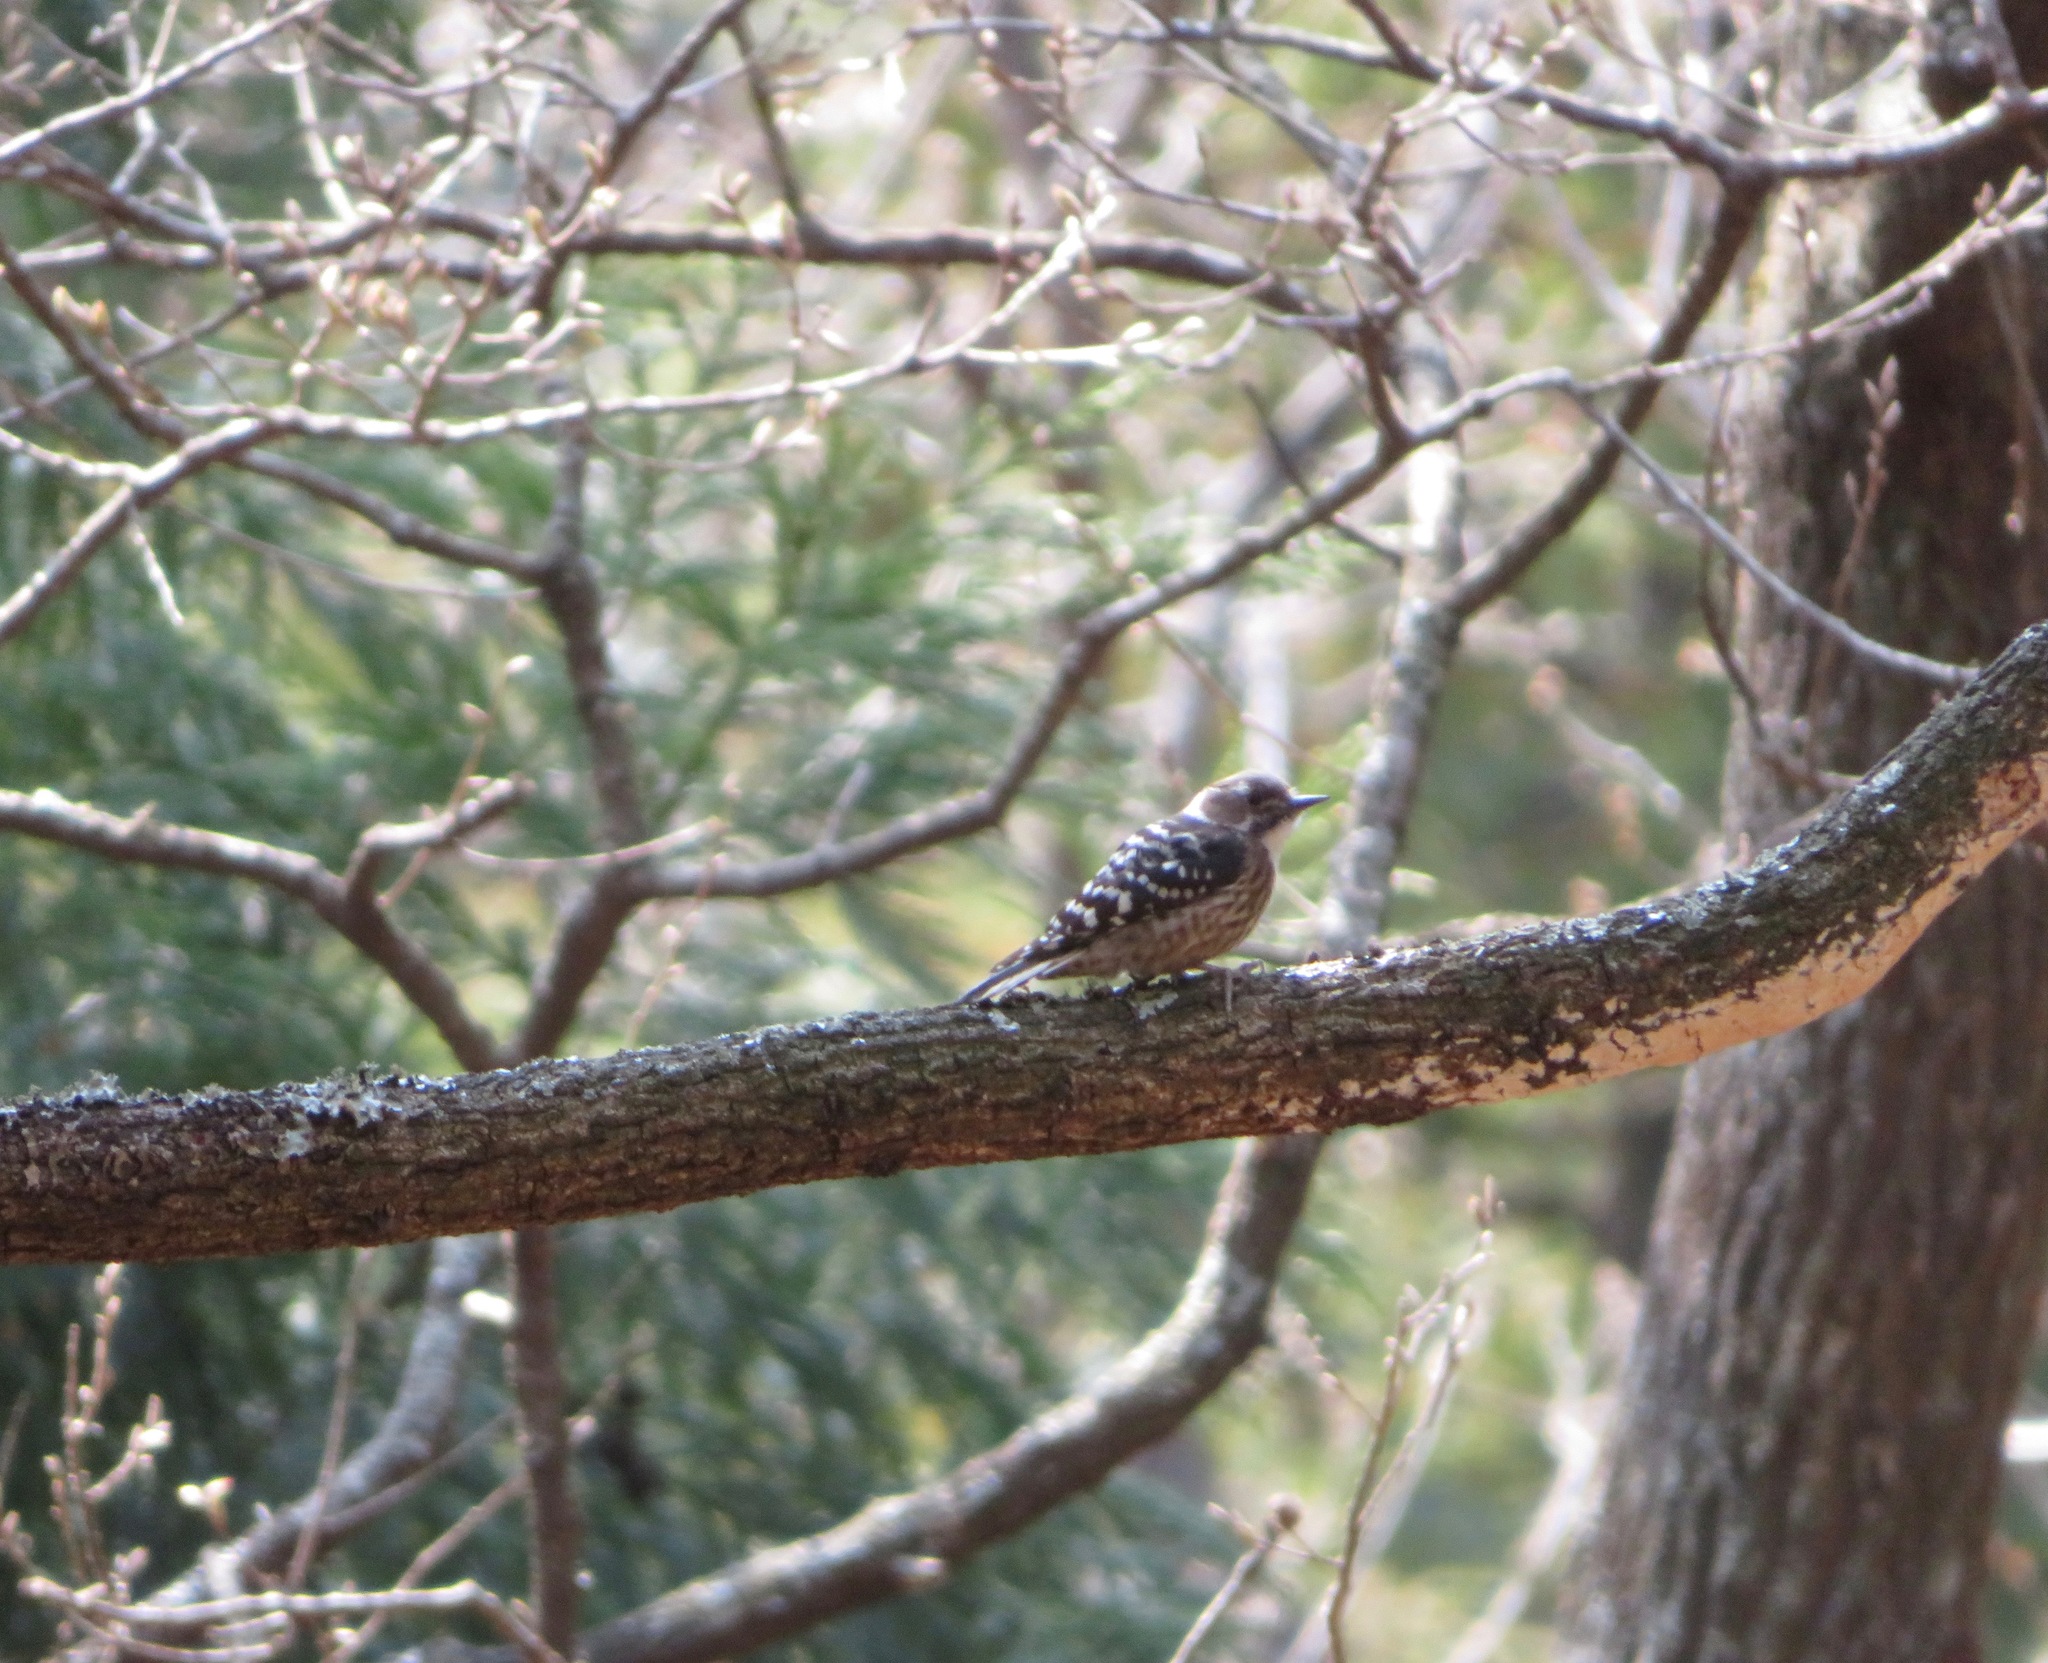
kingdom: Animalia
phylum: Chordata
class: Aves
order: Piciformes
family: Picidae
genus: Yungipicus
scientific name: Yungipicus kizuki
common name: Japanese pygmy woodpecker
